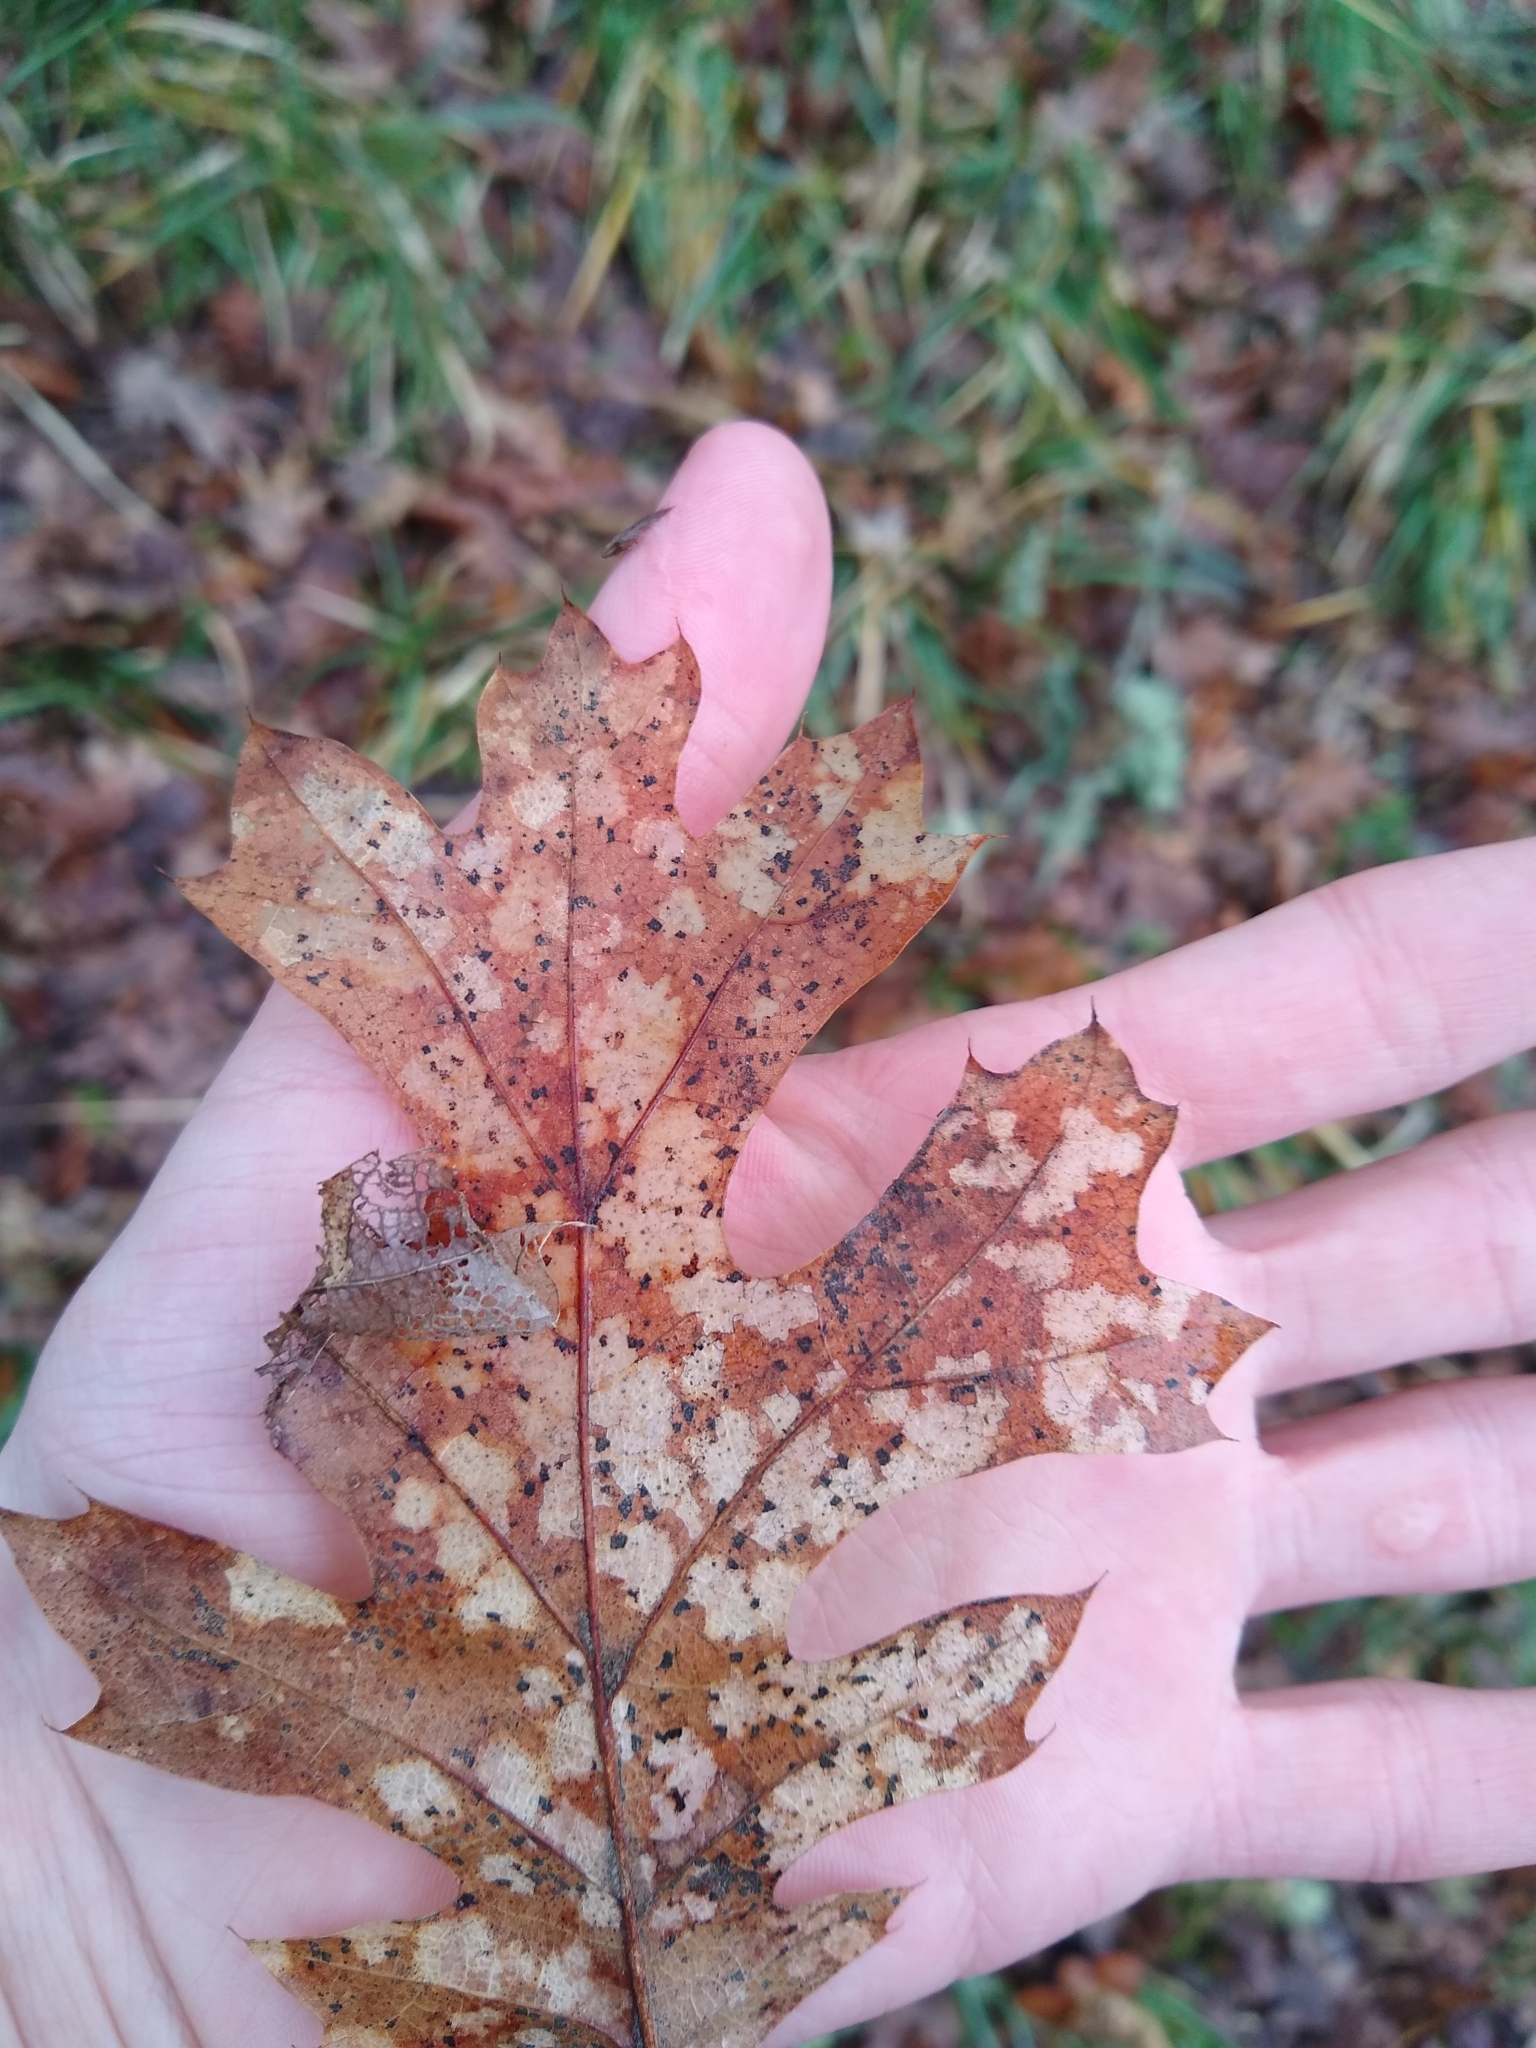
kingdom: Plantae
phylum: Tracheophyta
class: Magnoliopsida
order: Fagales
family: Fagaceae
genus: Quercus
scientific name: Quercus kelloggii
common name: California black oak
